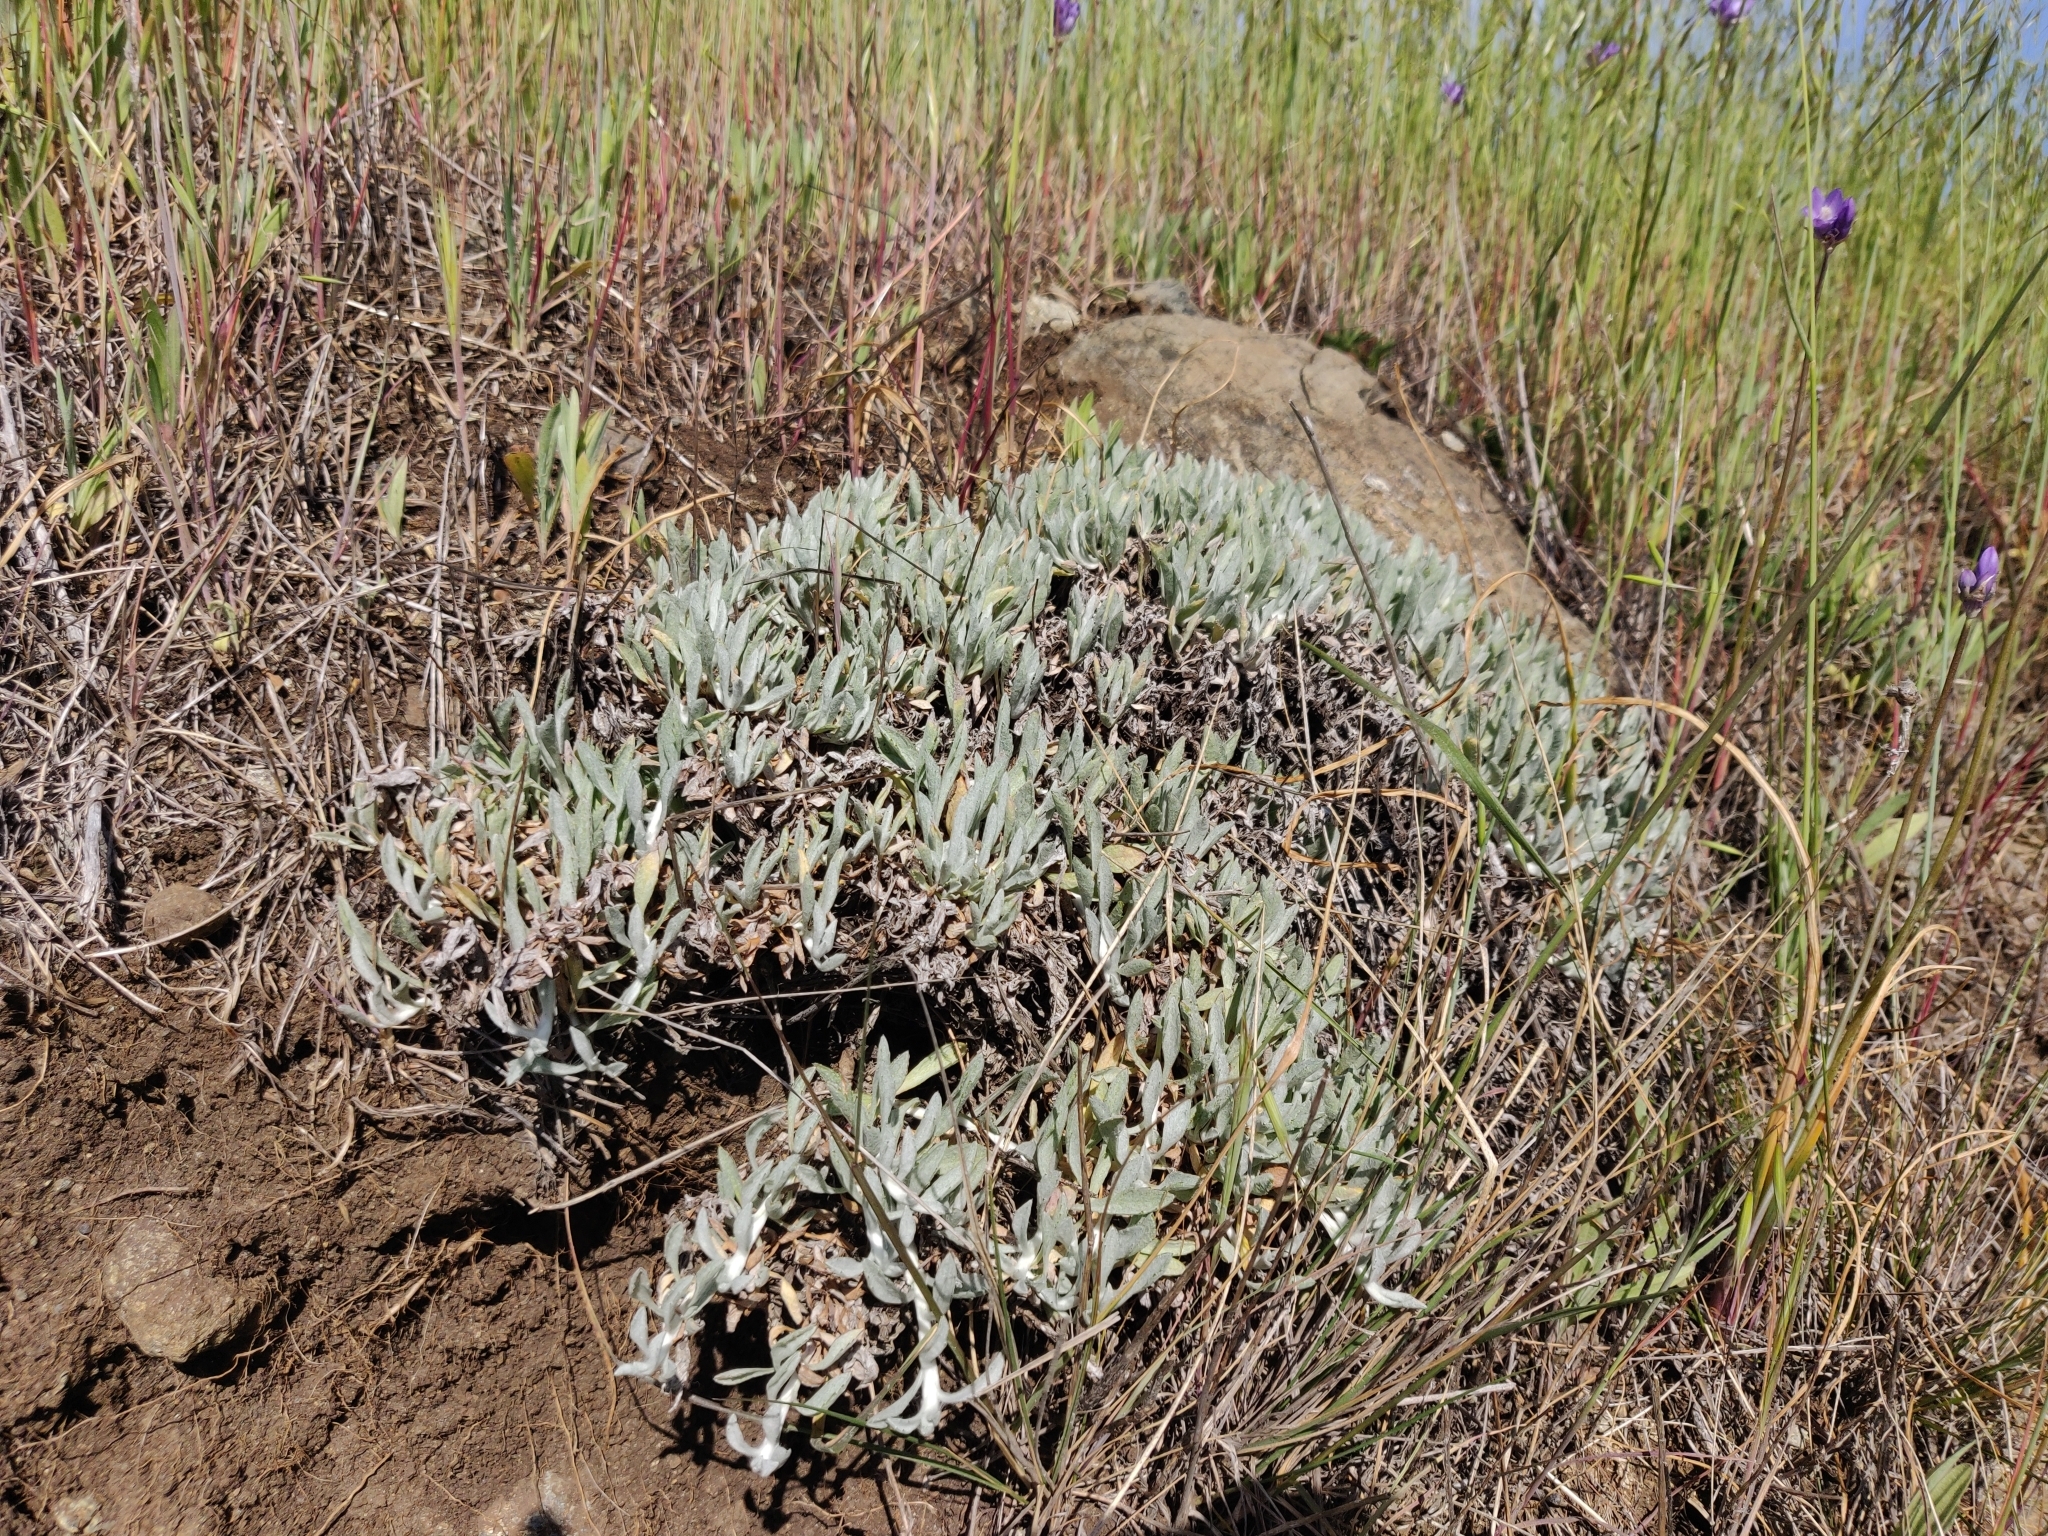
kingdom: Plantae
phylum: Tracheophyta
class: Magnoliopsida
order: Asterales
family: Asteraceae
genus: Corethrogyne
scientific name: Corethrogyne filaginifolia
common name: Sand-aster
